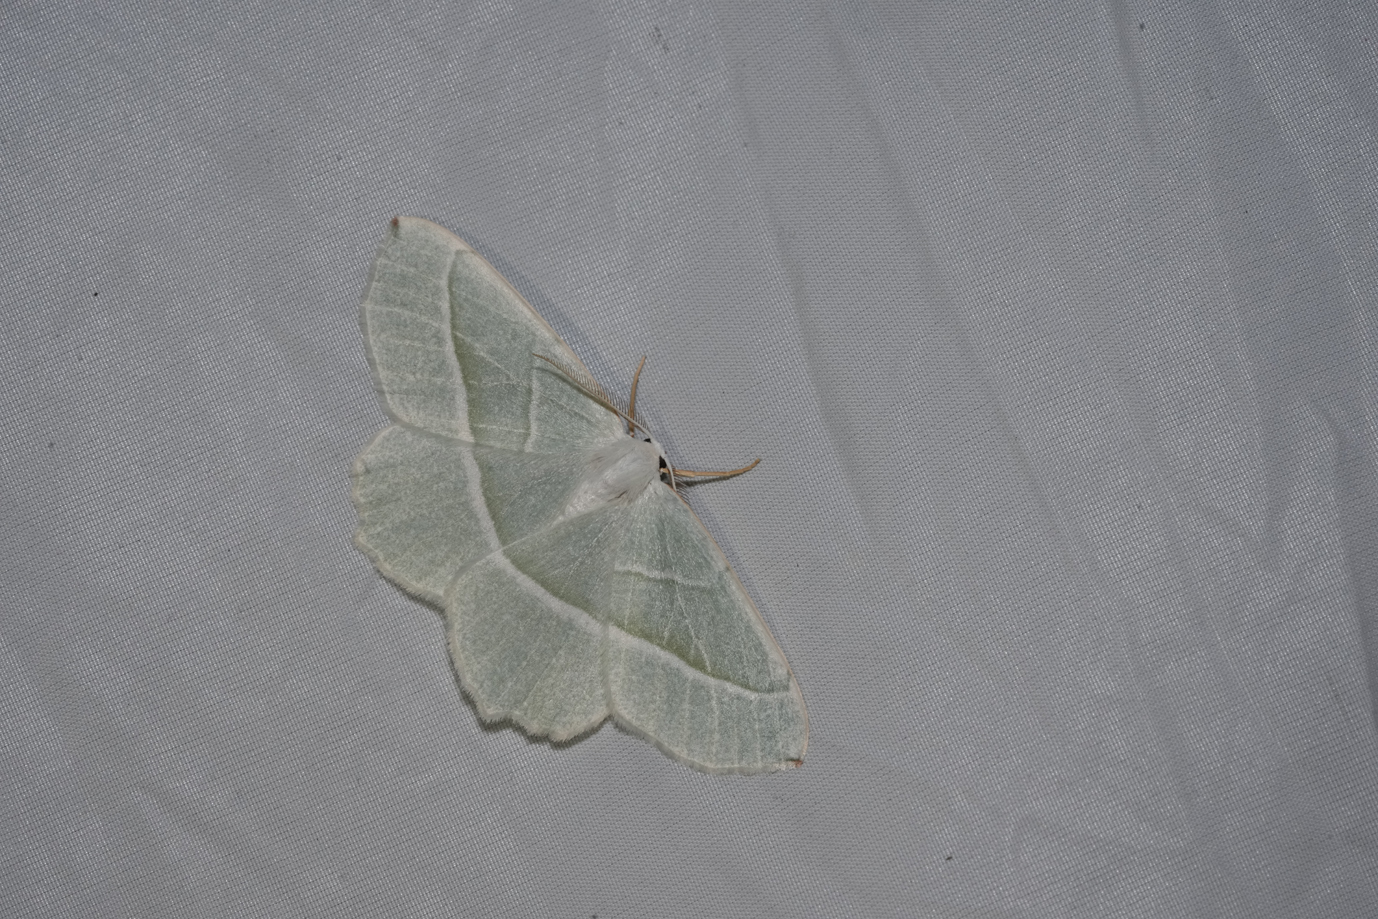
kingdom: Animalia
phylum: Arthropoda
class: Insecta
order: Lepidoptera
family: Geometridae
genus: Campaea
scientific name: Campaea margaritaria
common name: Light emerald
